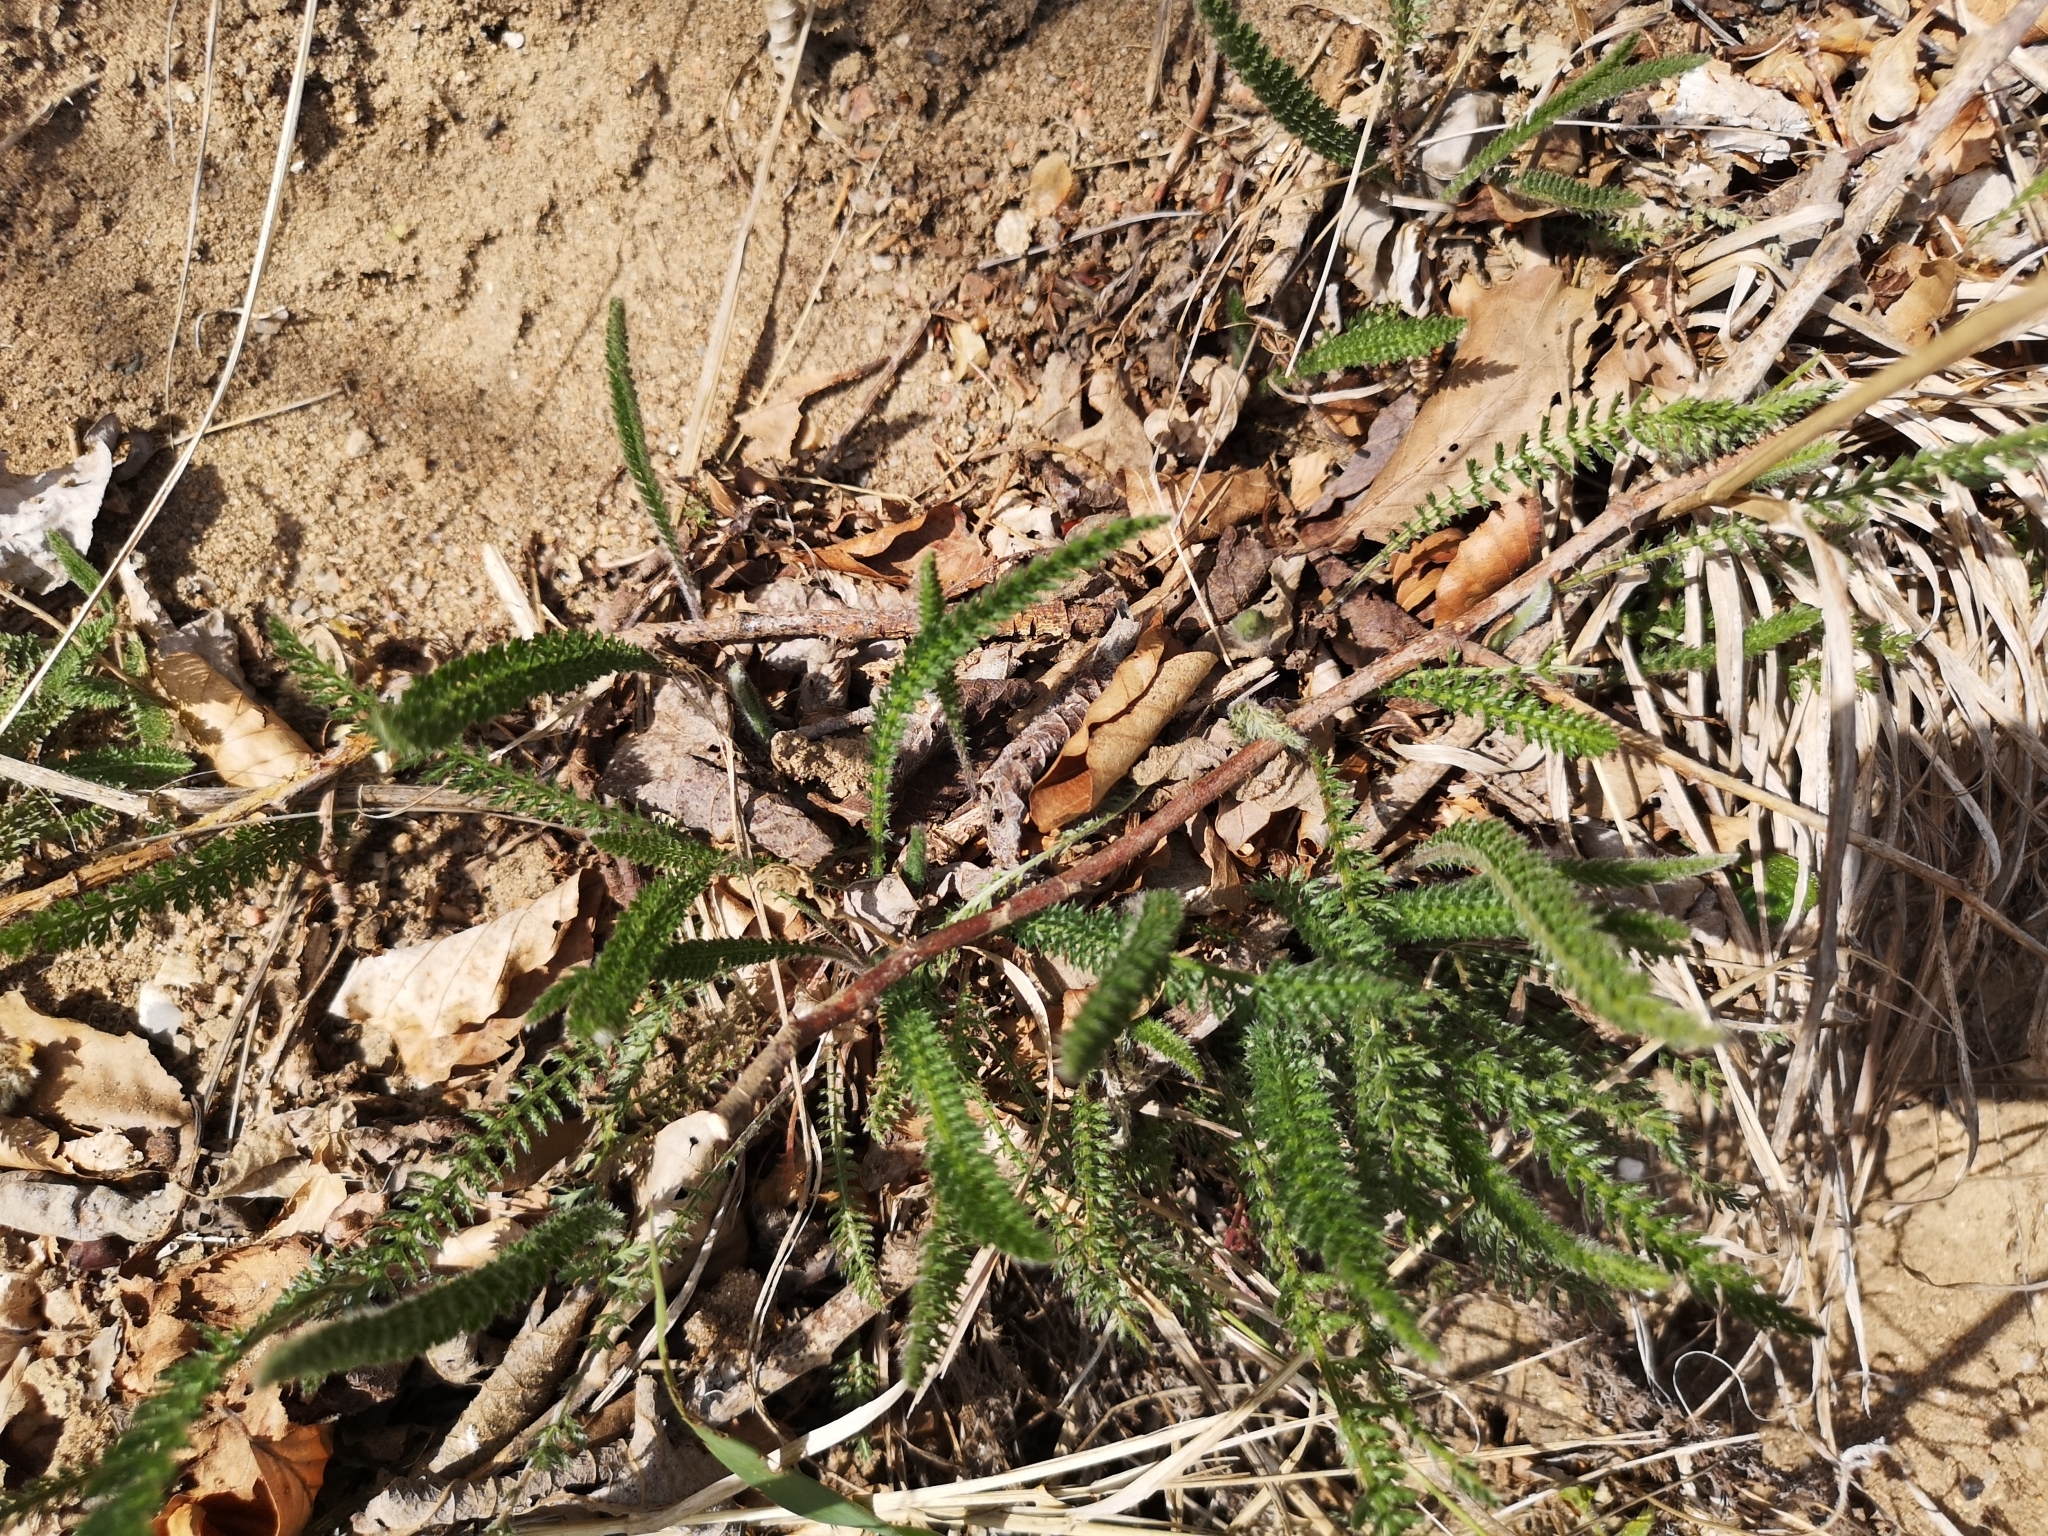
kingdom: Plantae
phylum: Tracheophyta
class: Magnoliopsida
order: Asterales
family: Asteraceae
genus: Achillea
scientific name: Achillea millefolium
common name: Yarrow
